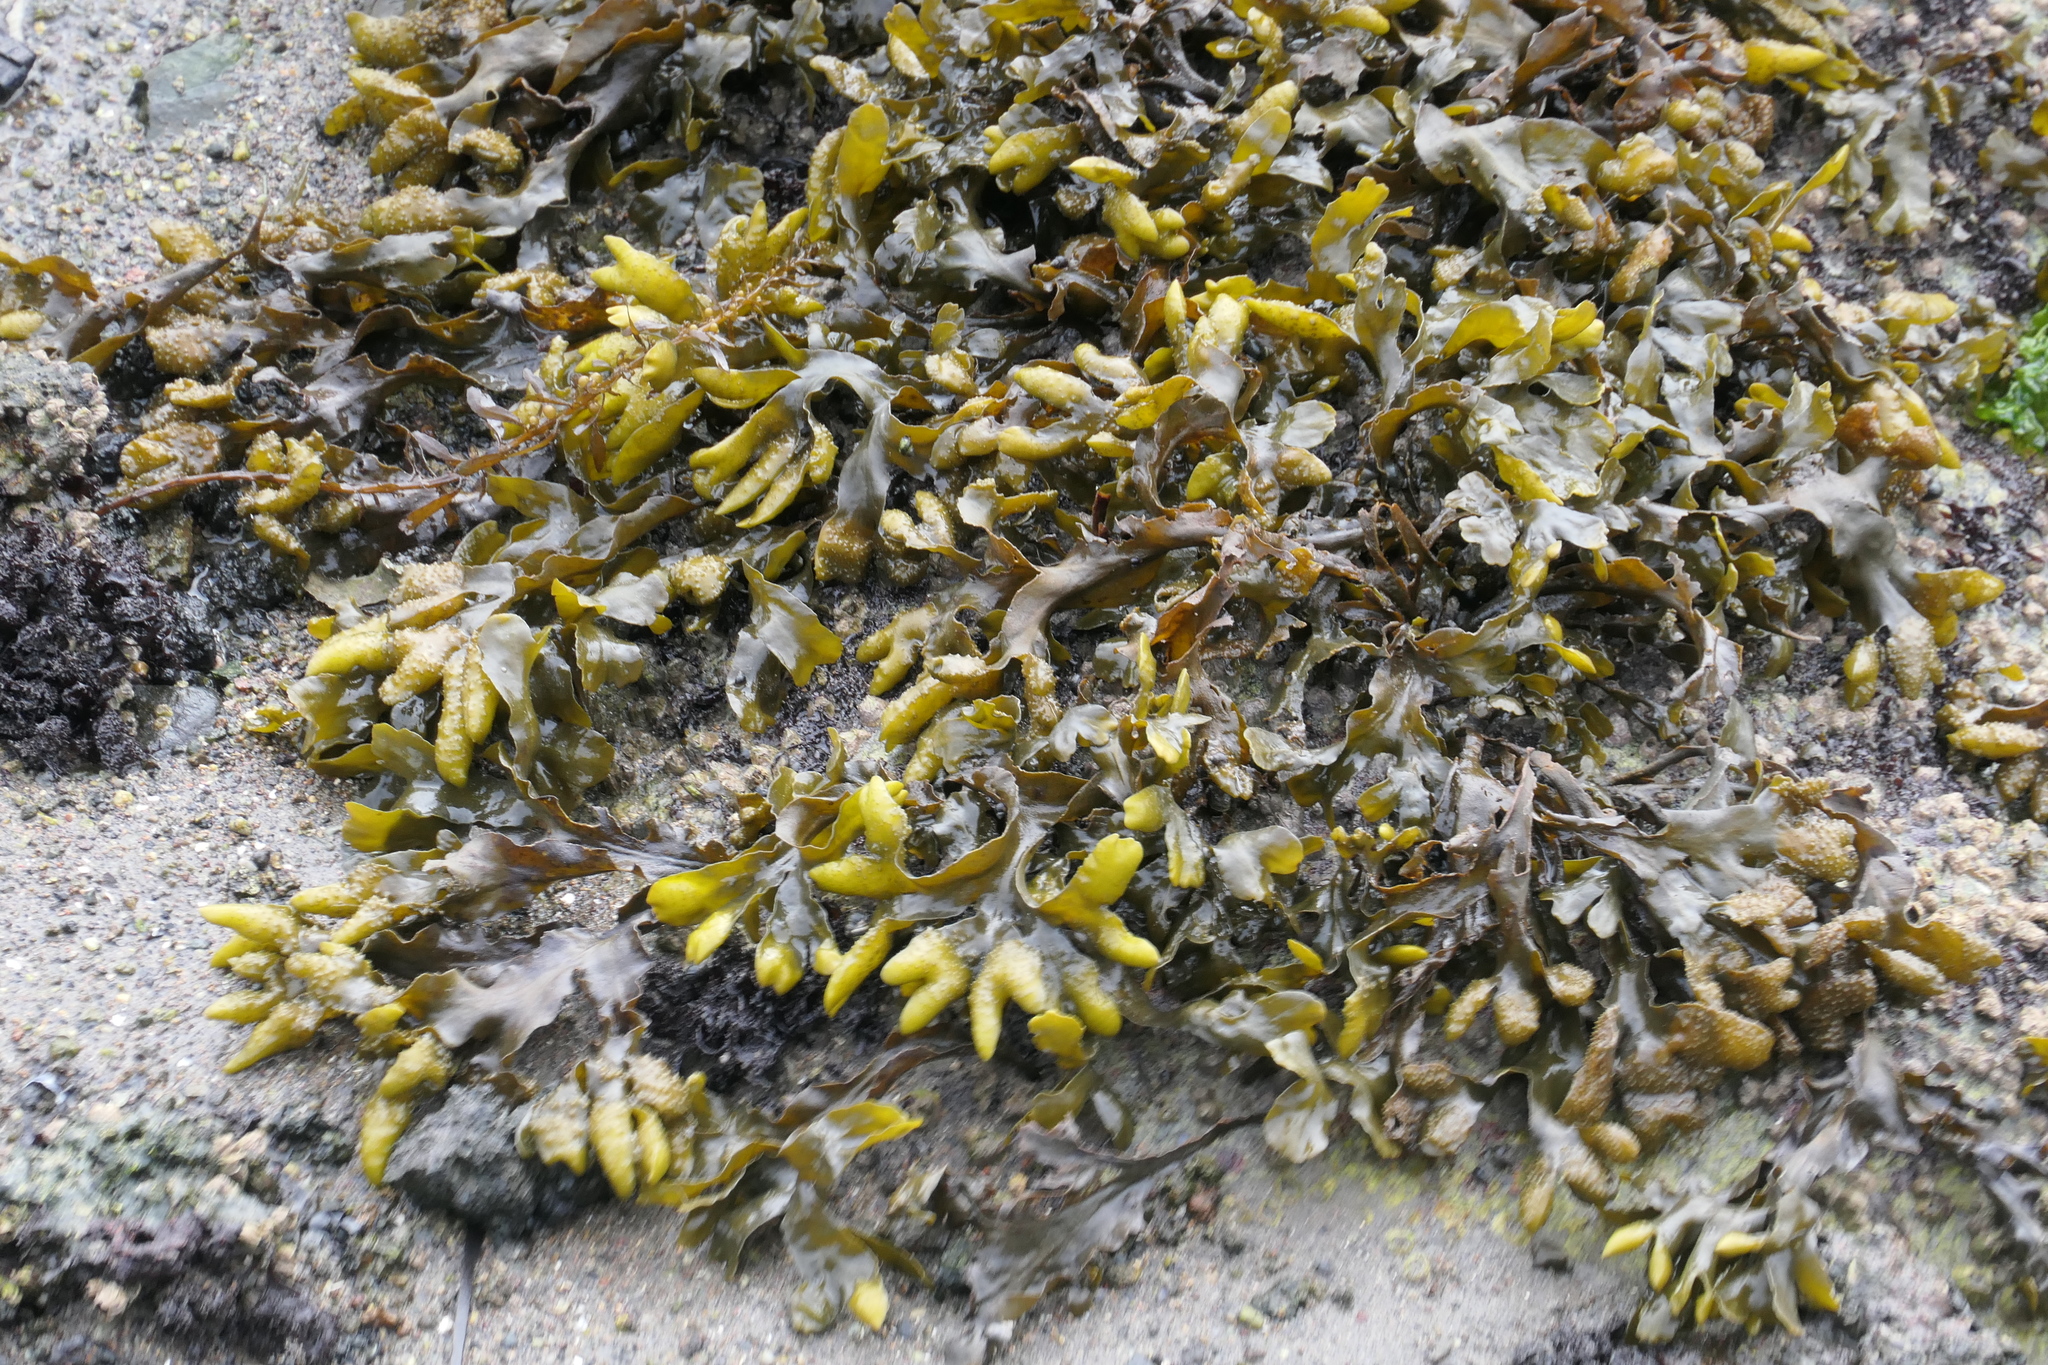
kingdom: Chromista
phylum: Ochrophyta
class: Phaeophyceae
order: Fucales
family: Fucaceae
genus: Fucus
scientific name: Fucus distichus
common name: Rockweed
